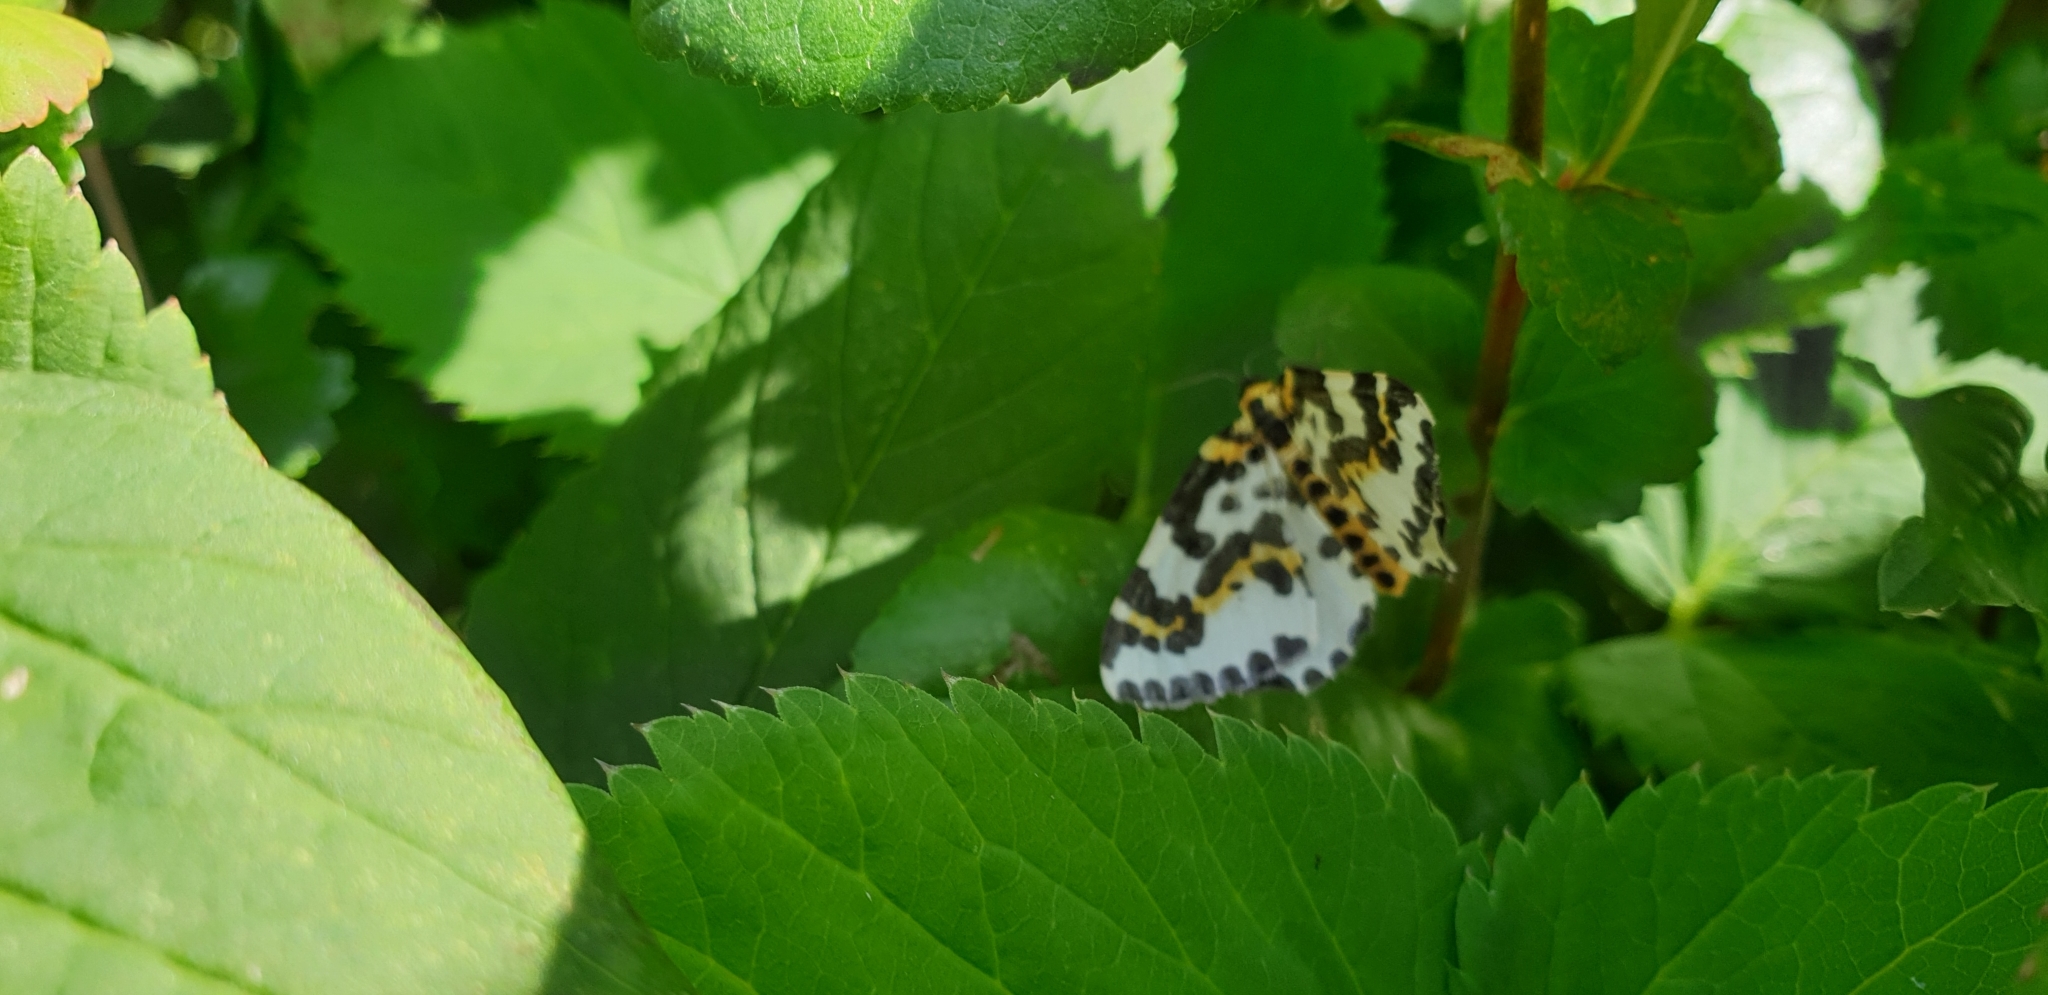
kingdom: Animalia
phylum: Arthropoda
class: Insecta
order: Lepidoptera
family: Geometridae
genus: Abraxas
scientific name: Abraxas grossulariata
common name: Magpie
